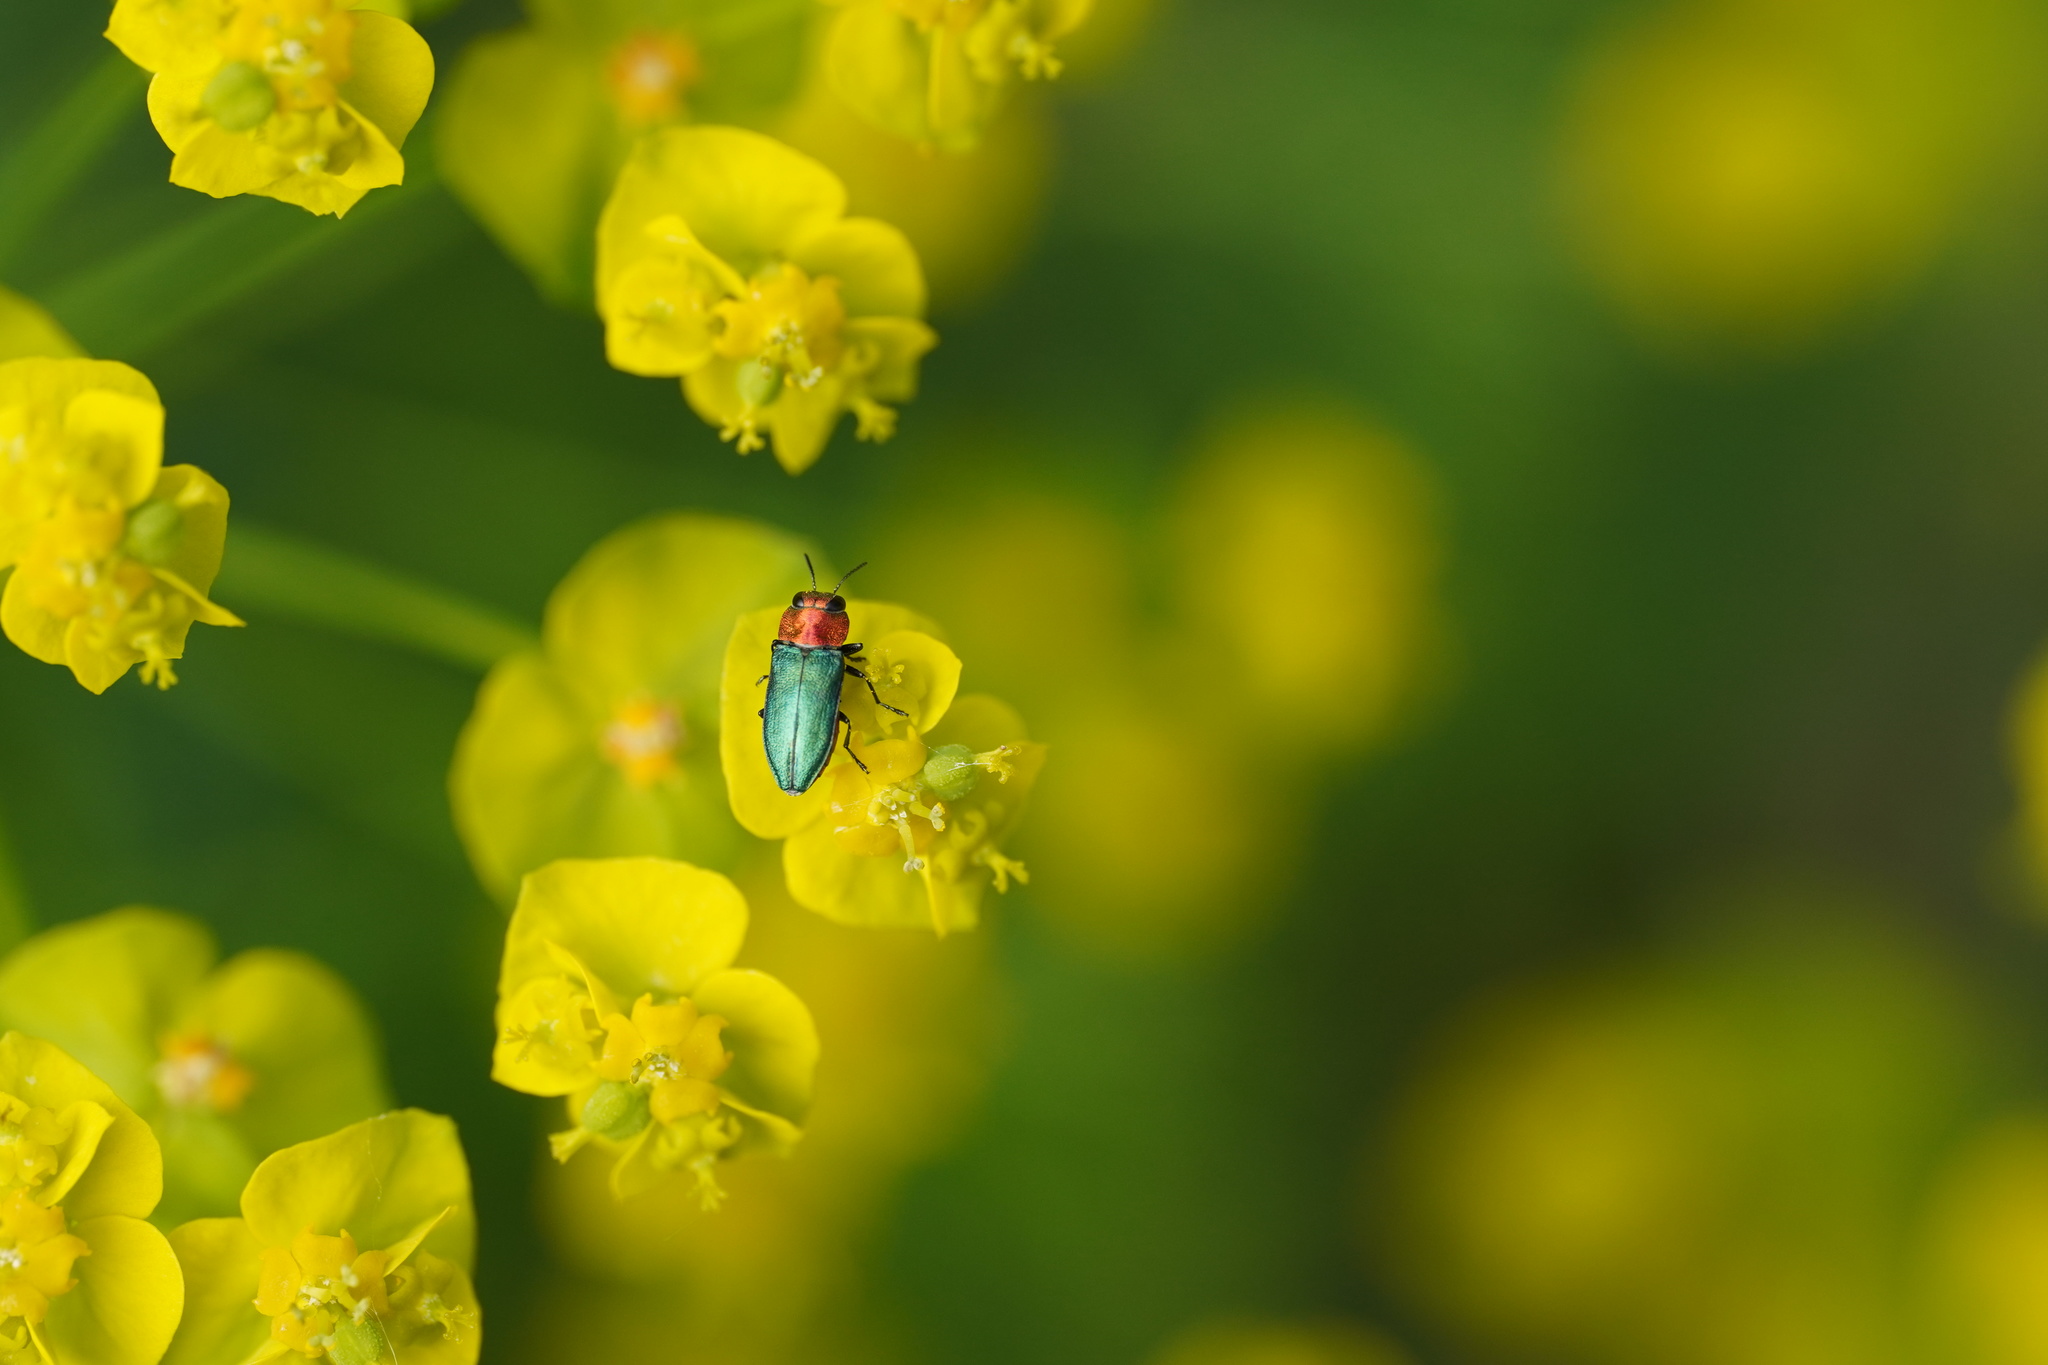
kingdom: Animalia
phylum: Arthropoda
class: Insecta
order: Coleoptera
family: Buprestidae
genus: Anthaxia
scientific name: Anthaxia nitidula
